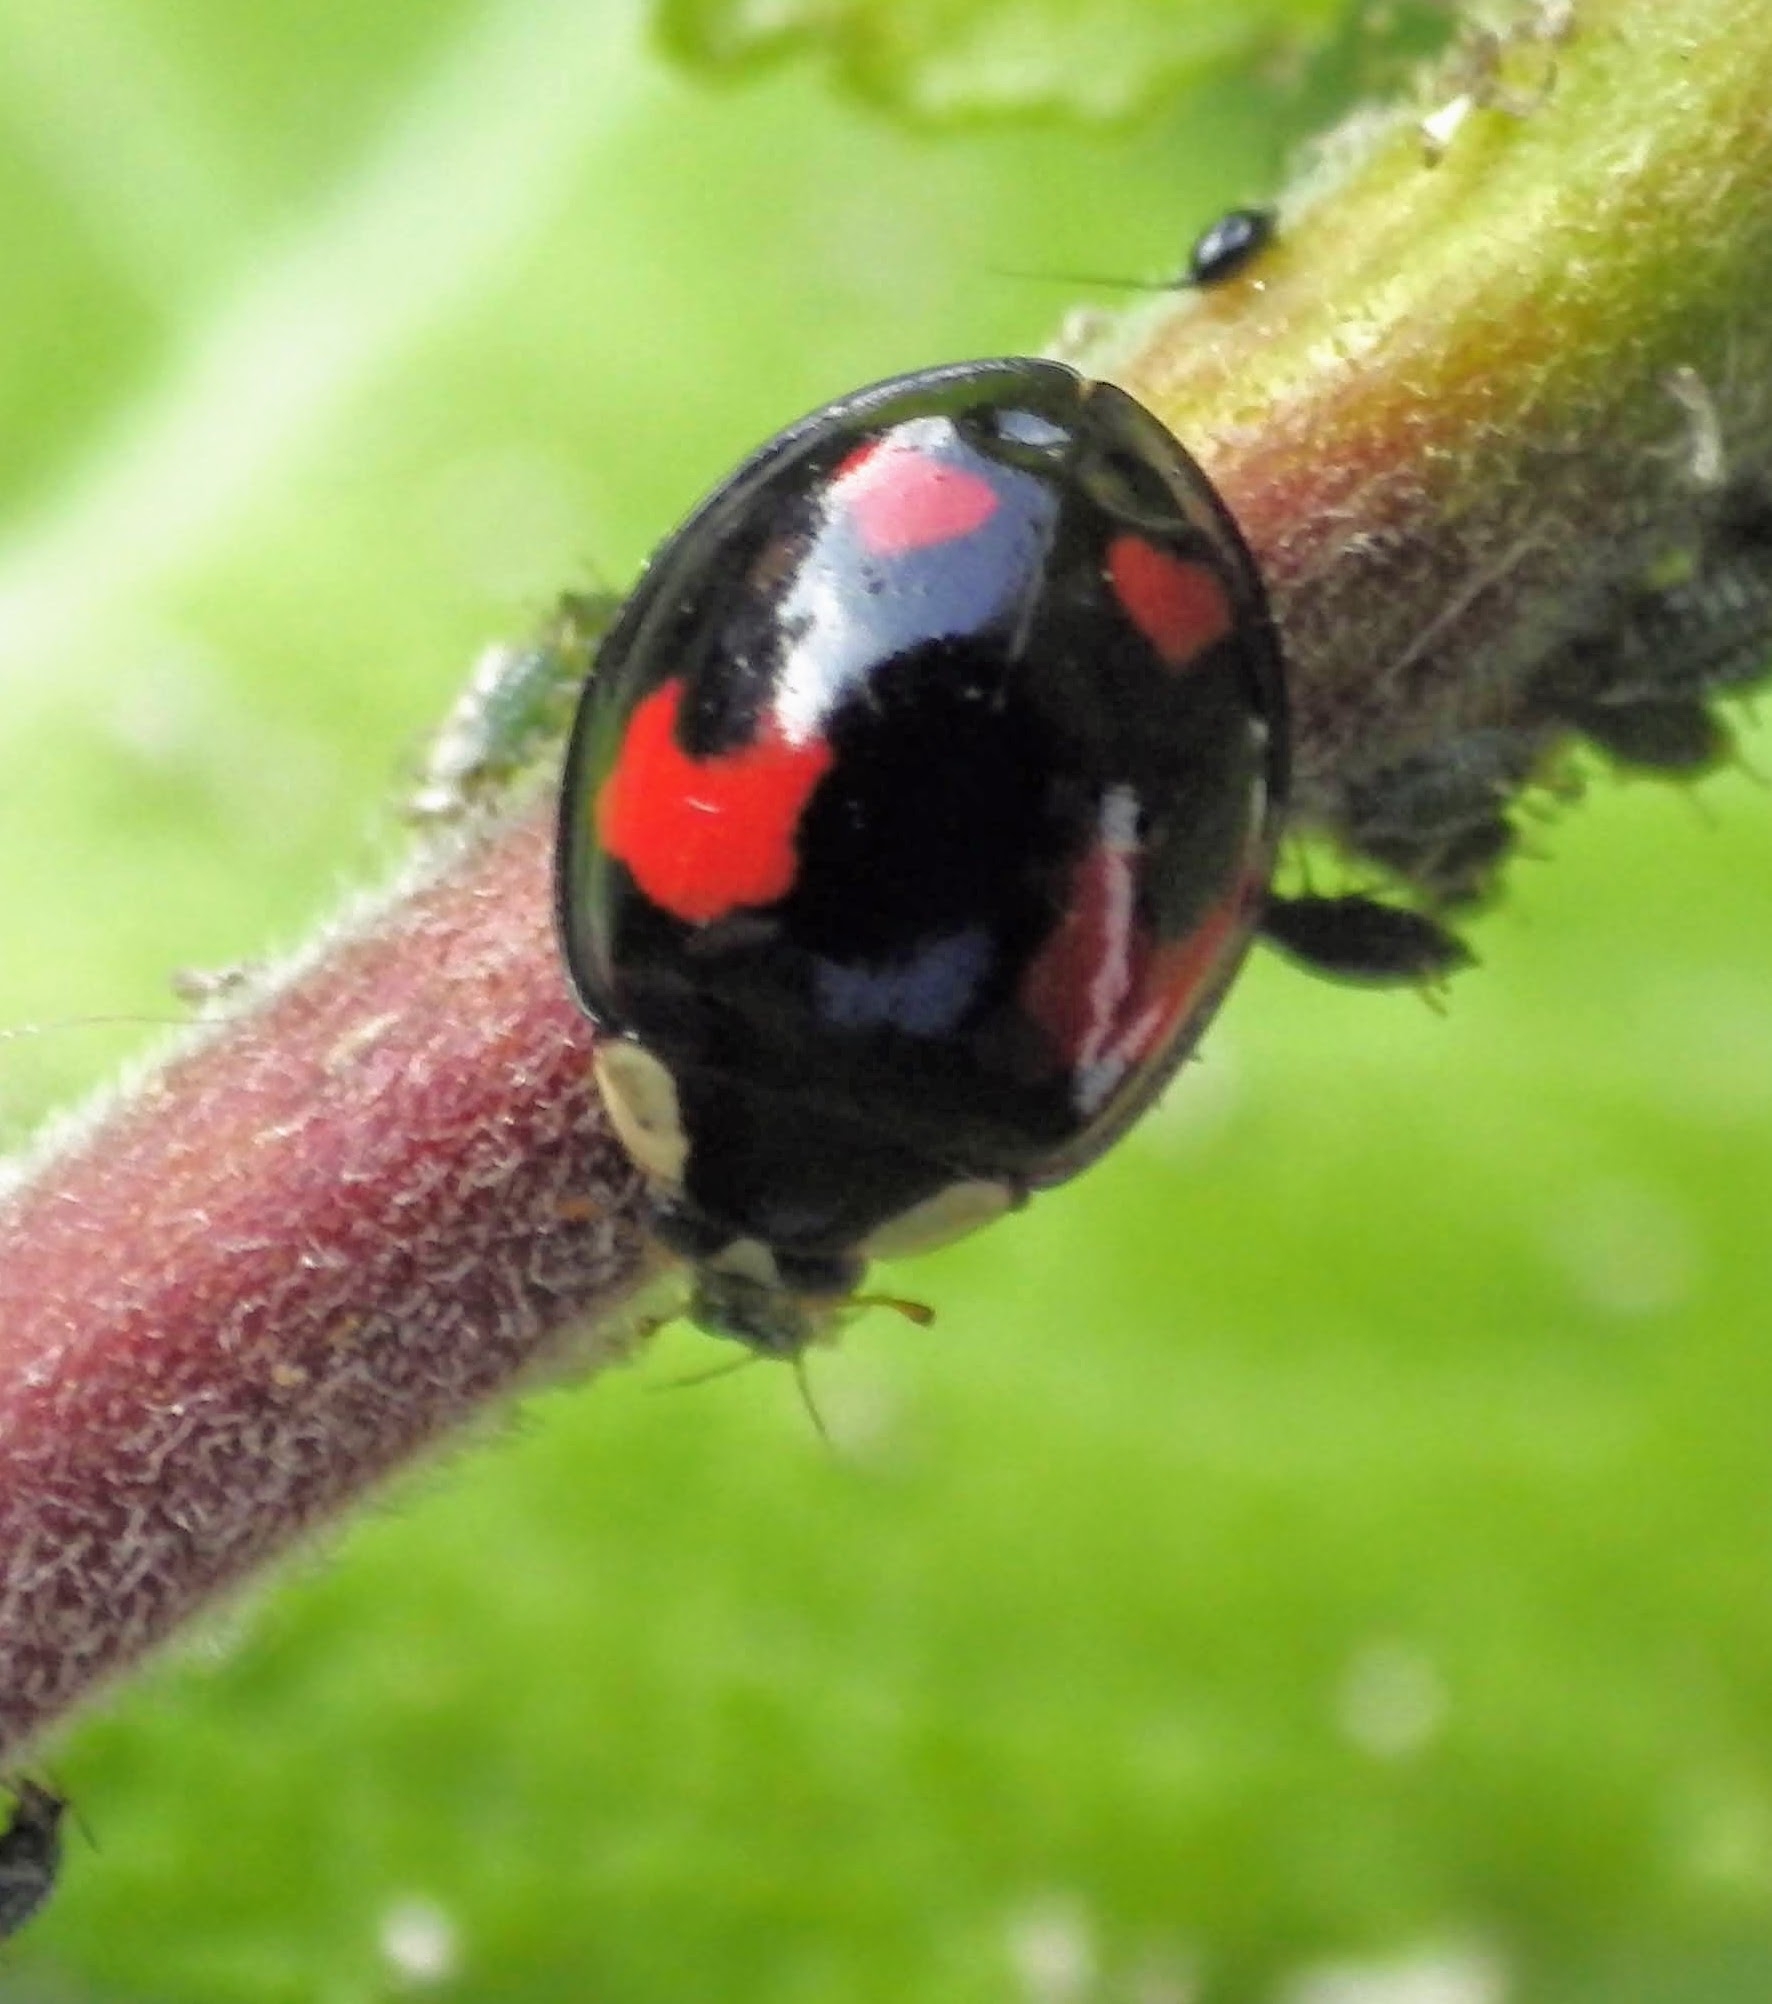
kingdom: Animalia
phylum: Arthropoda
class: Insecta
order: Coleoptera
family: Coccinellidae
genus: Harmonia
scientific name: Harmonia axyridis
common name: Harlequin ladybird
